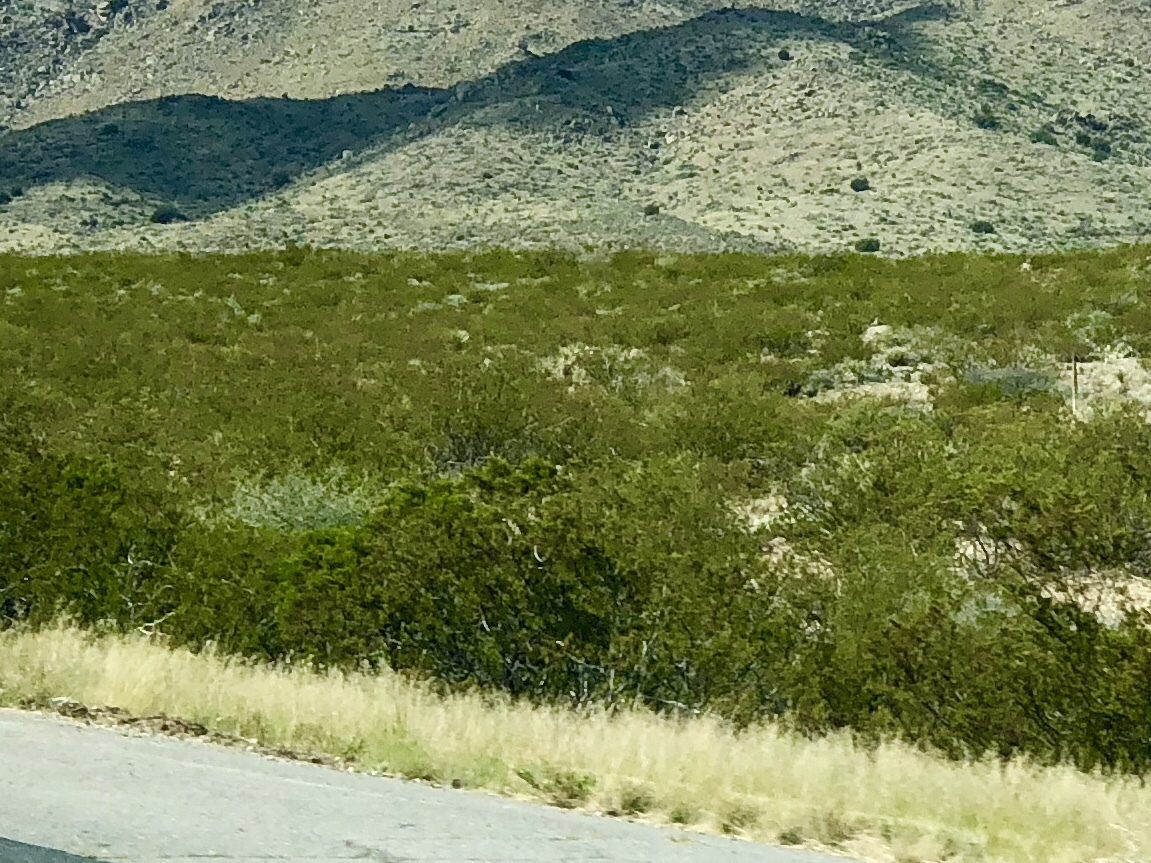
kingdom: Plantae
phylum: Tracheophyta
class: Magnoliopsida
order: Zygophyllales
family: Zygophyllaceae
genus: Larrea
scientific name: Larrea tridentata
